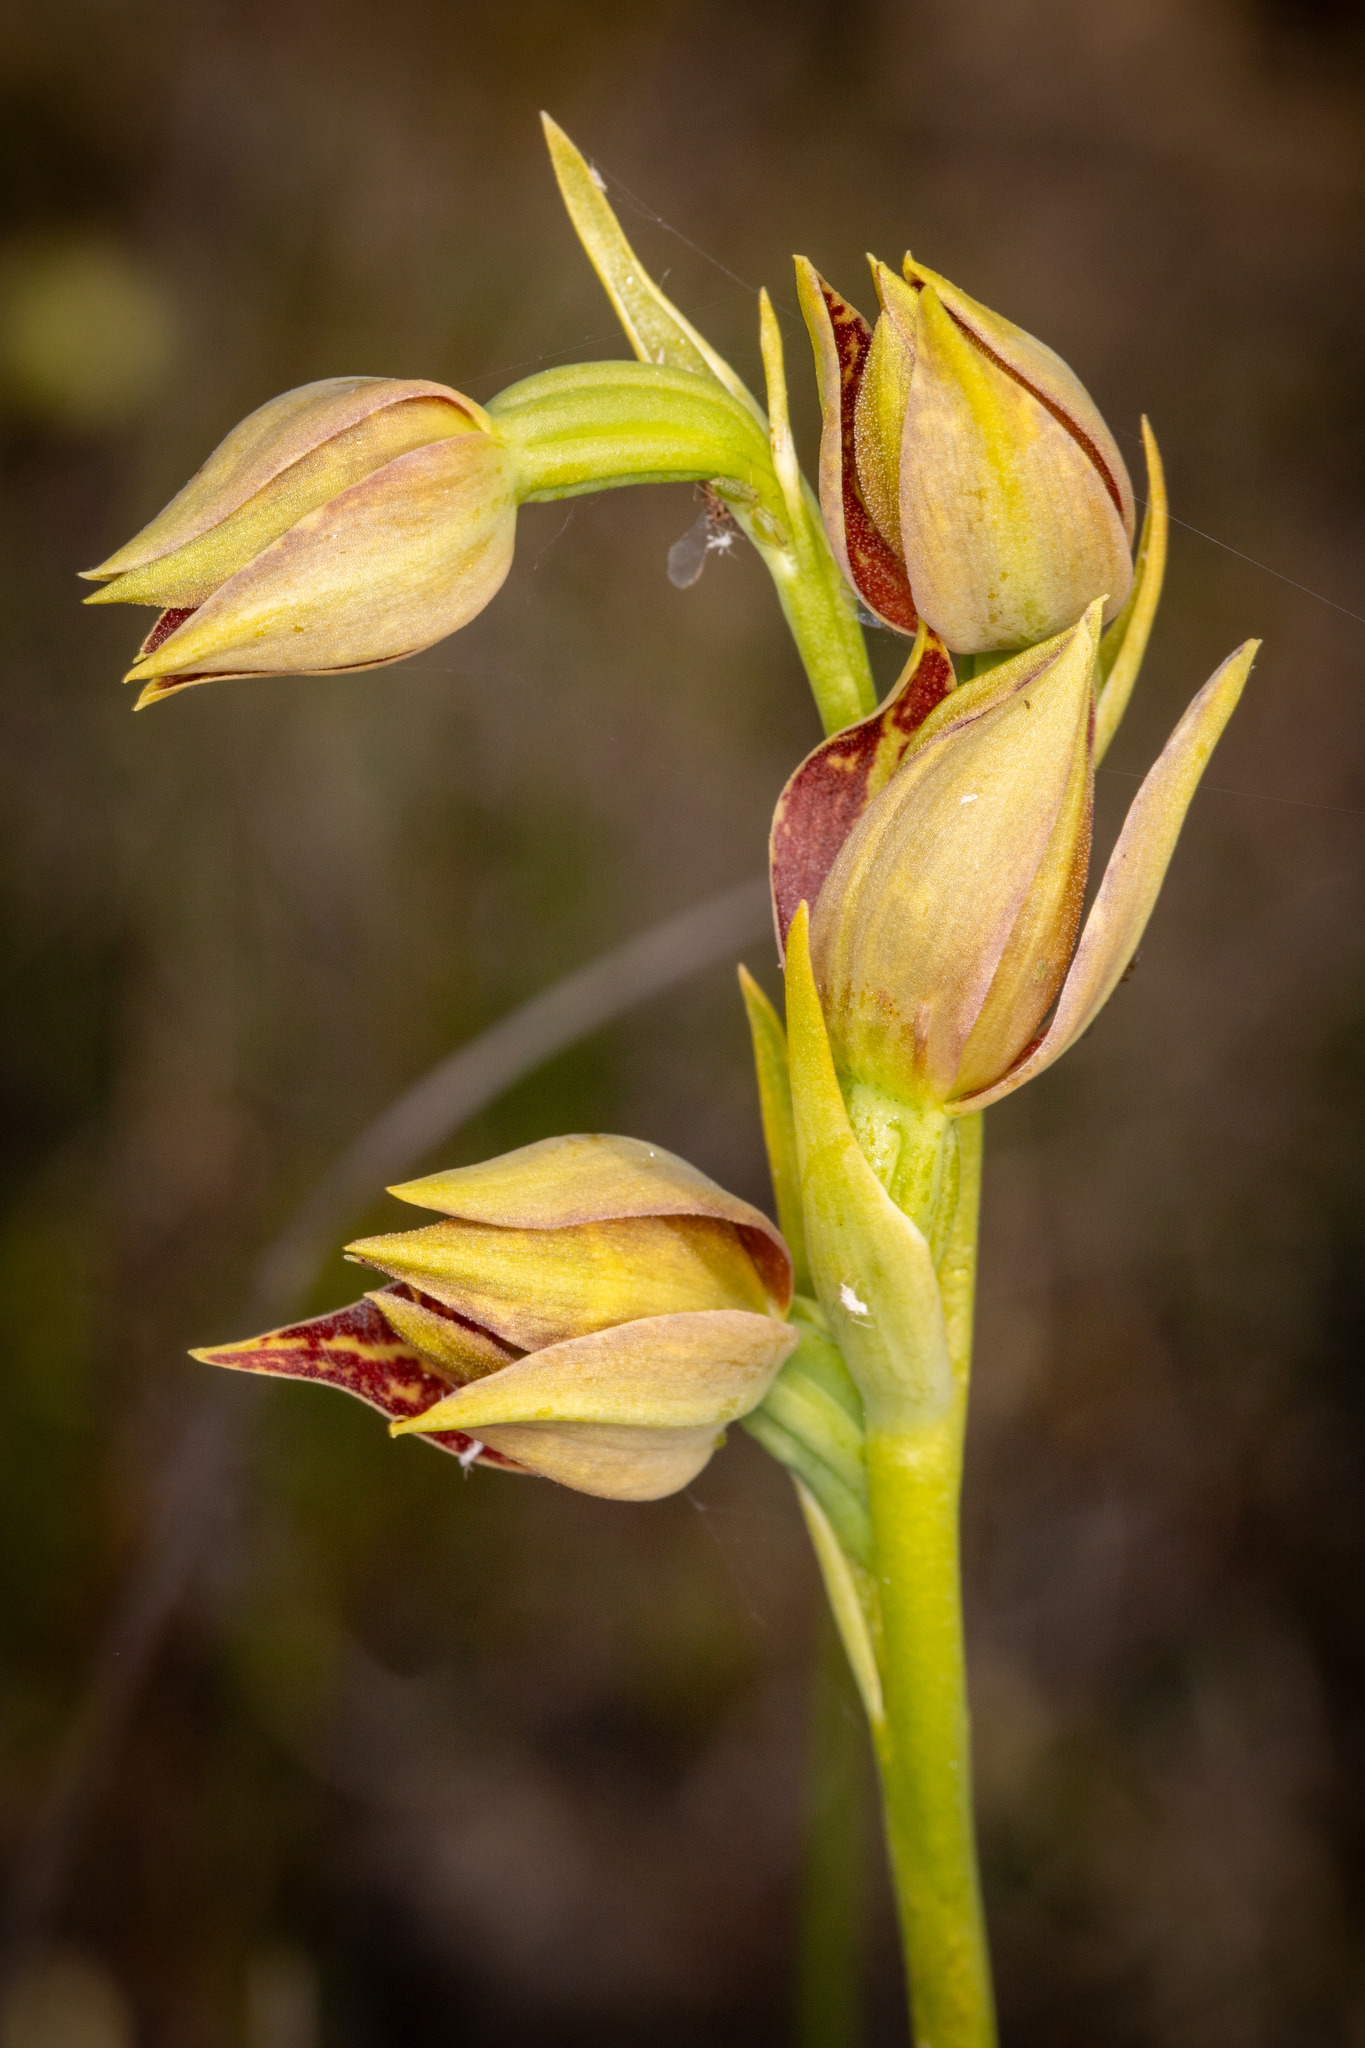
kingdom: Plantae
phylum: Tracheophyta
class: Liliopsida
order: Asparagales
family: Orchidaceae
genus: Thelymitra
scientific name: Thelymitra benthamiana
